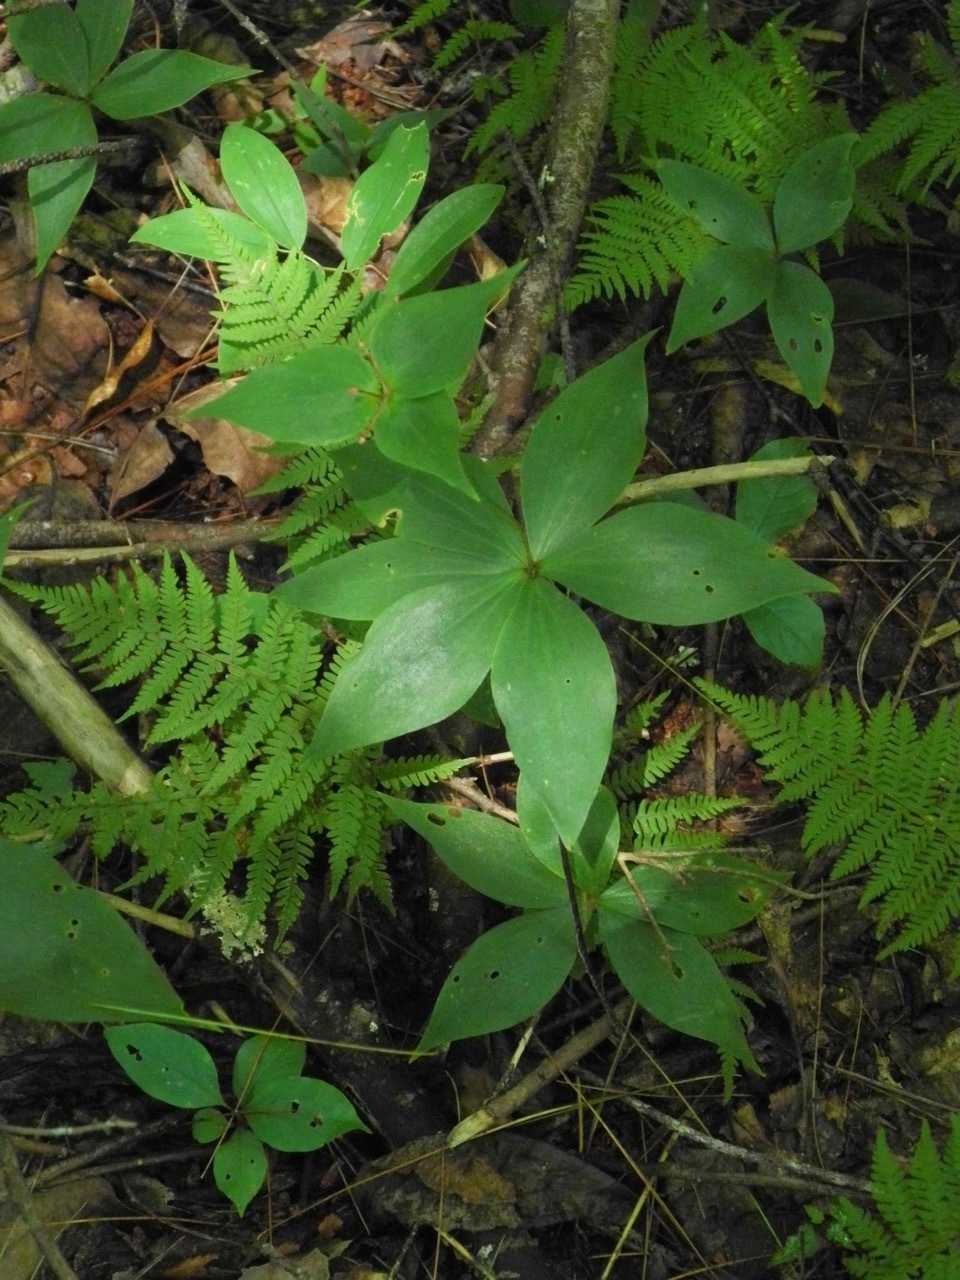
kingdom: Plantae
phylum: Tracheophyta
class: Liliopsida
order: Liliales
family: Liliaceae
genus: Medeola
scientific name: Medeola virginiana
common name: Indian cucumber-root
